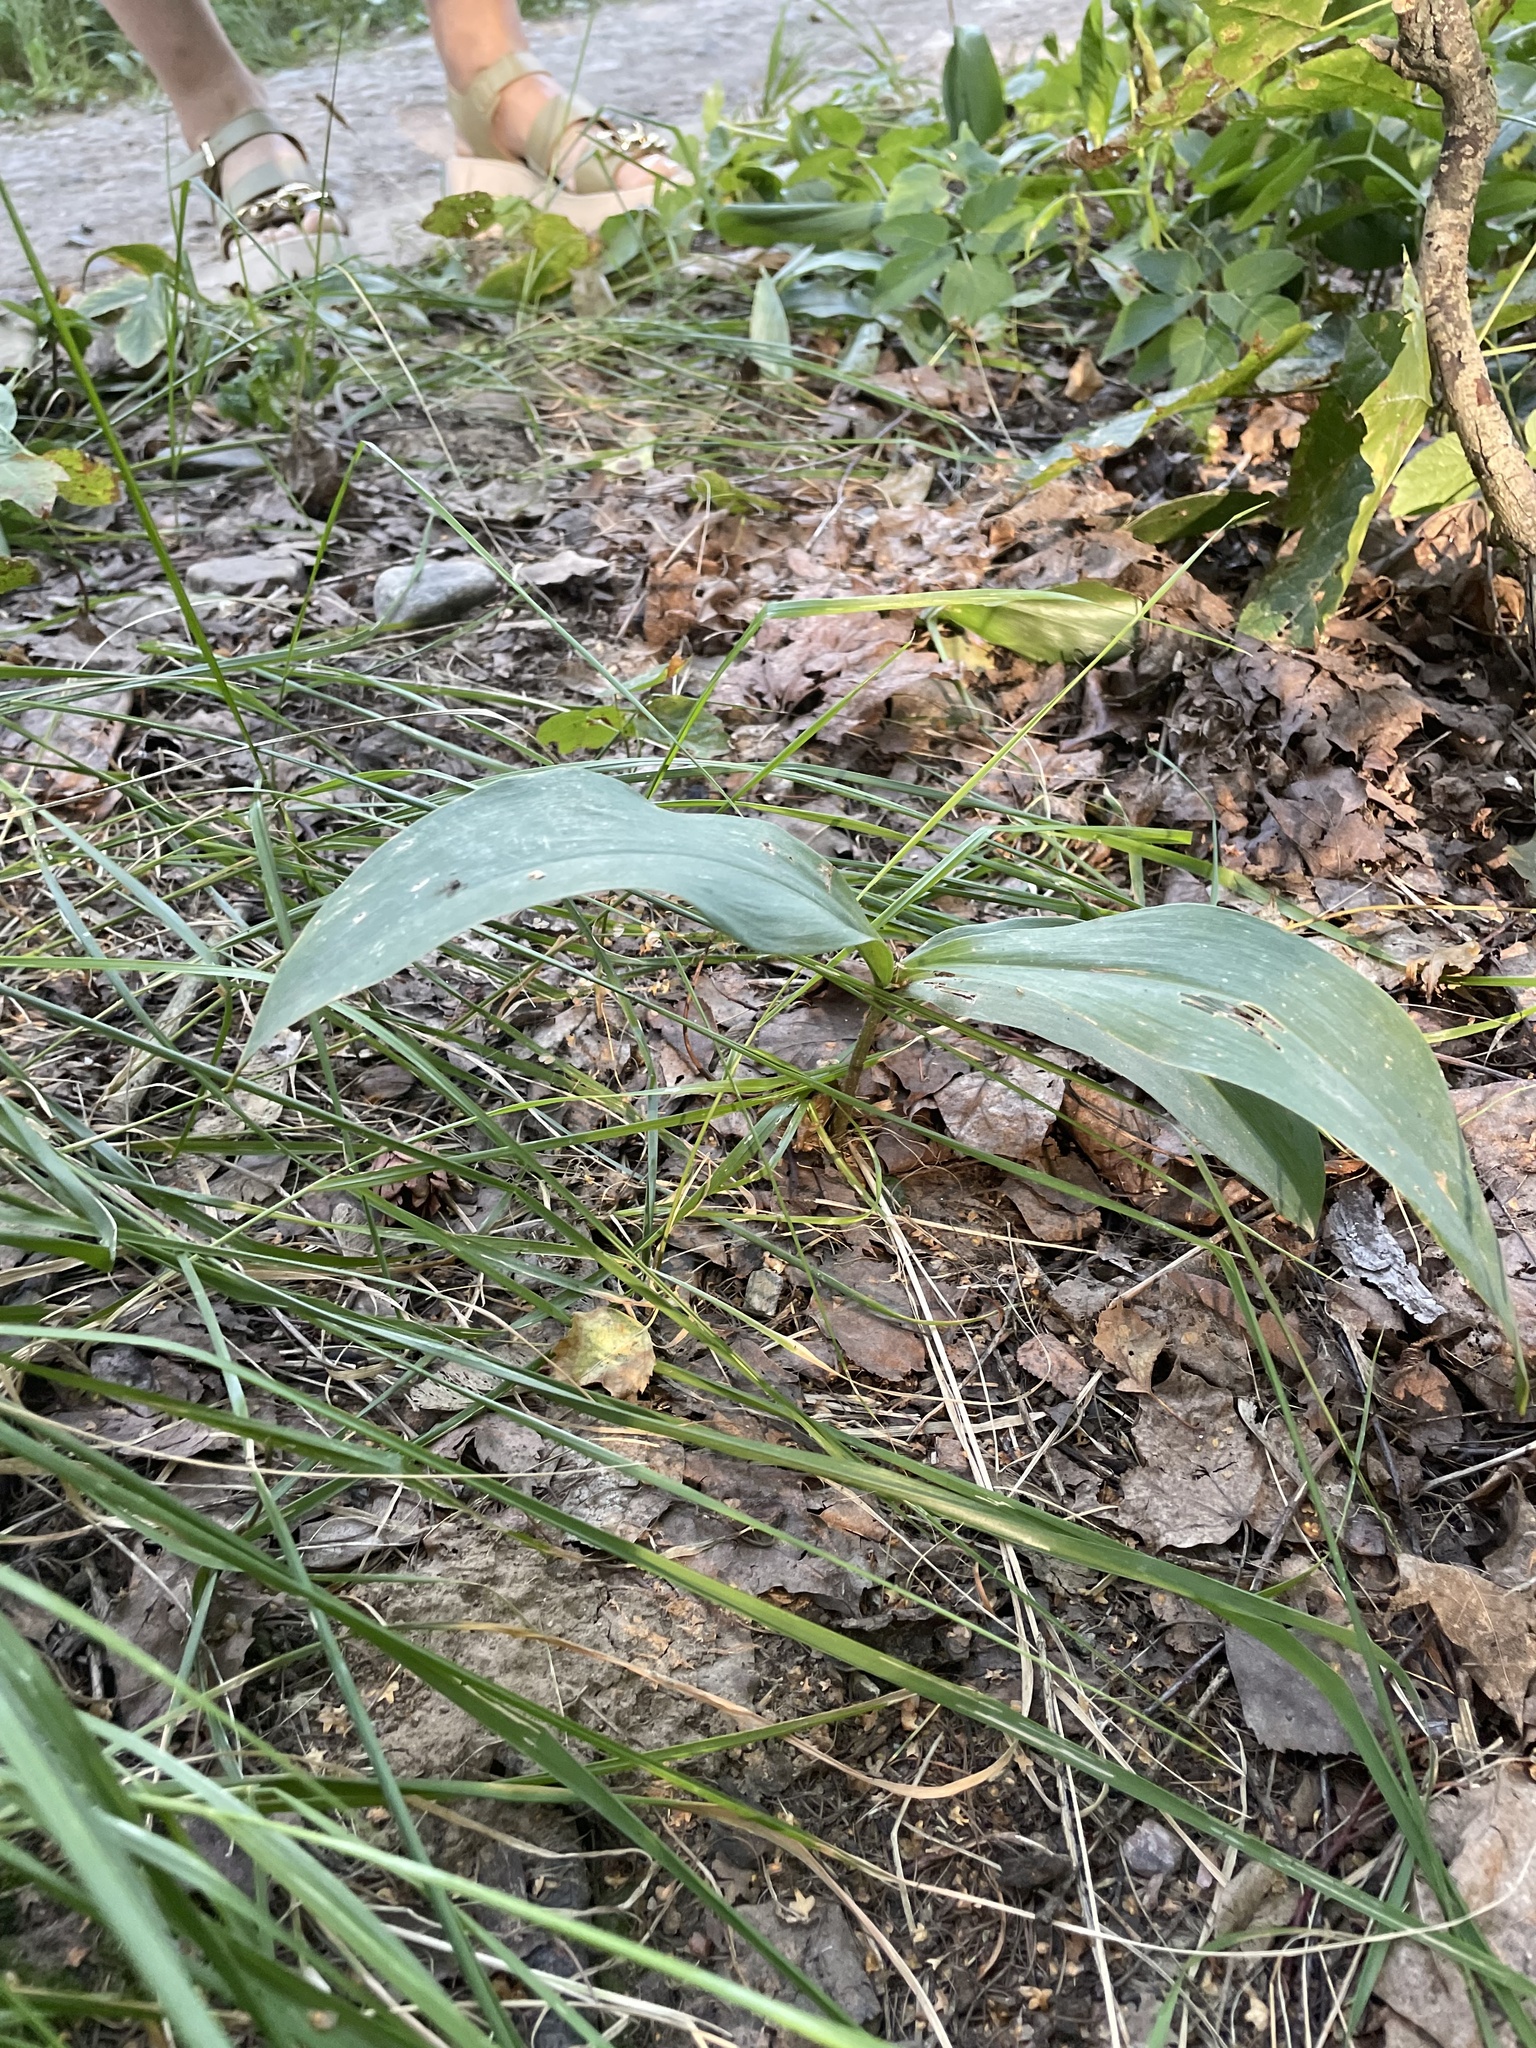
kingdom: Plantae
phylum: Tracheophyta
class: Liliopsida
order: Asparagales
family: Asparagaceae
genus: Convallaria
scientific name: Convallaria majalis
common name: Lily-of-the-valley
